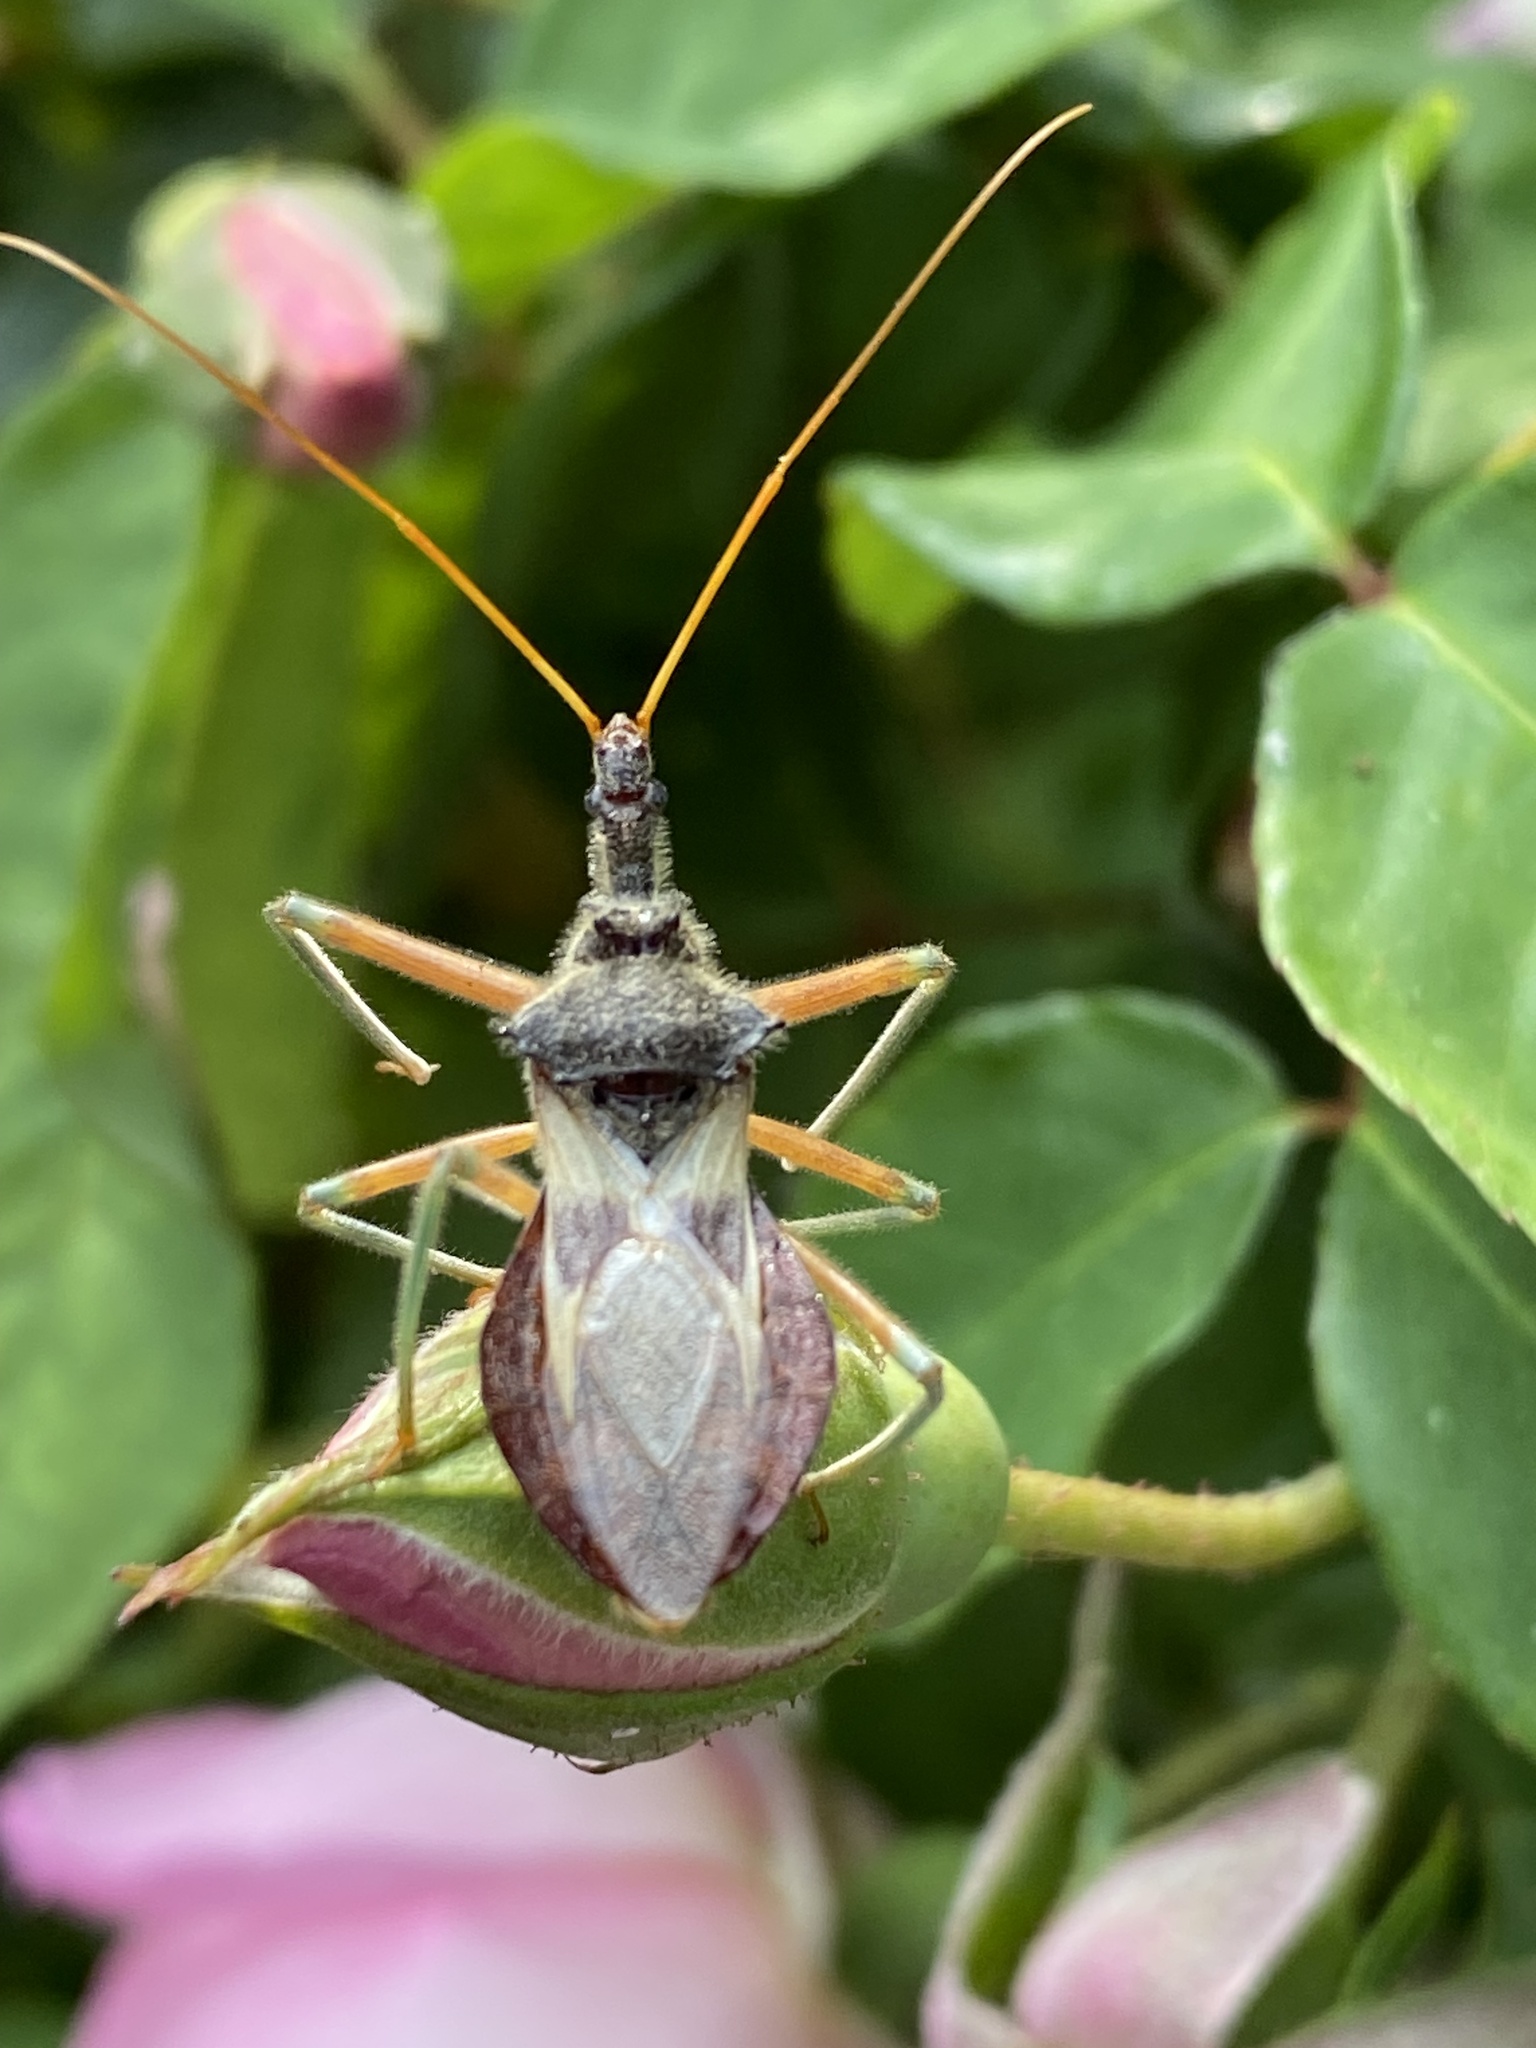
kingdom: Animalia
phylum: Arthropoda
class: Insecta
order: Hemiptera
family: Reduviidae
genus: Pristhesancus
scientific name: Pristhesancus plagipennis
